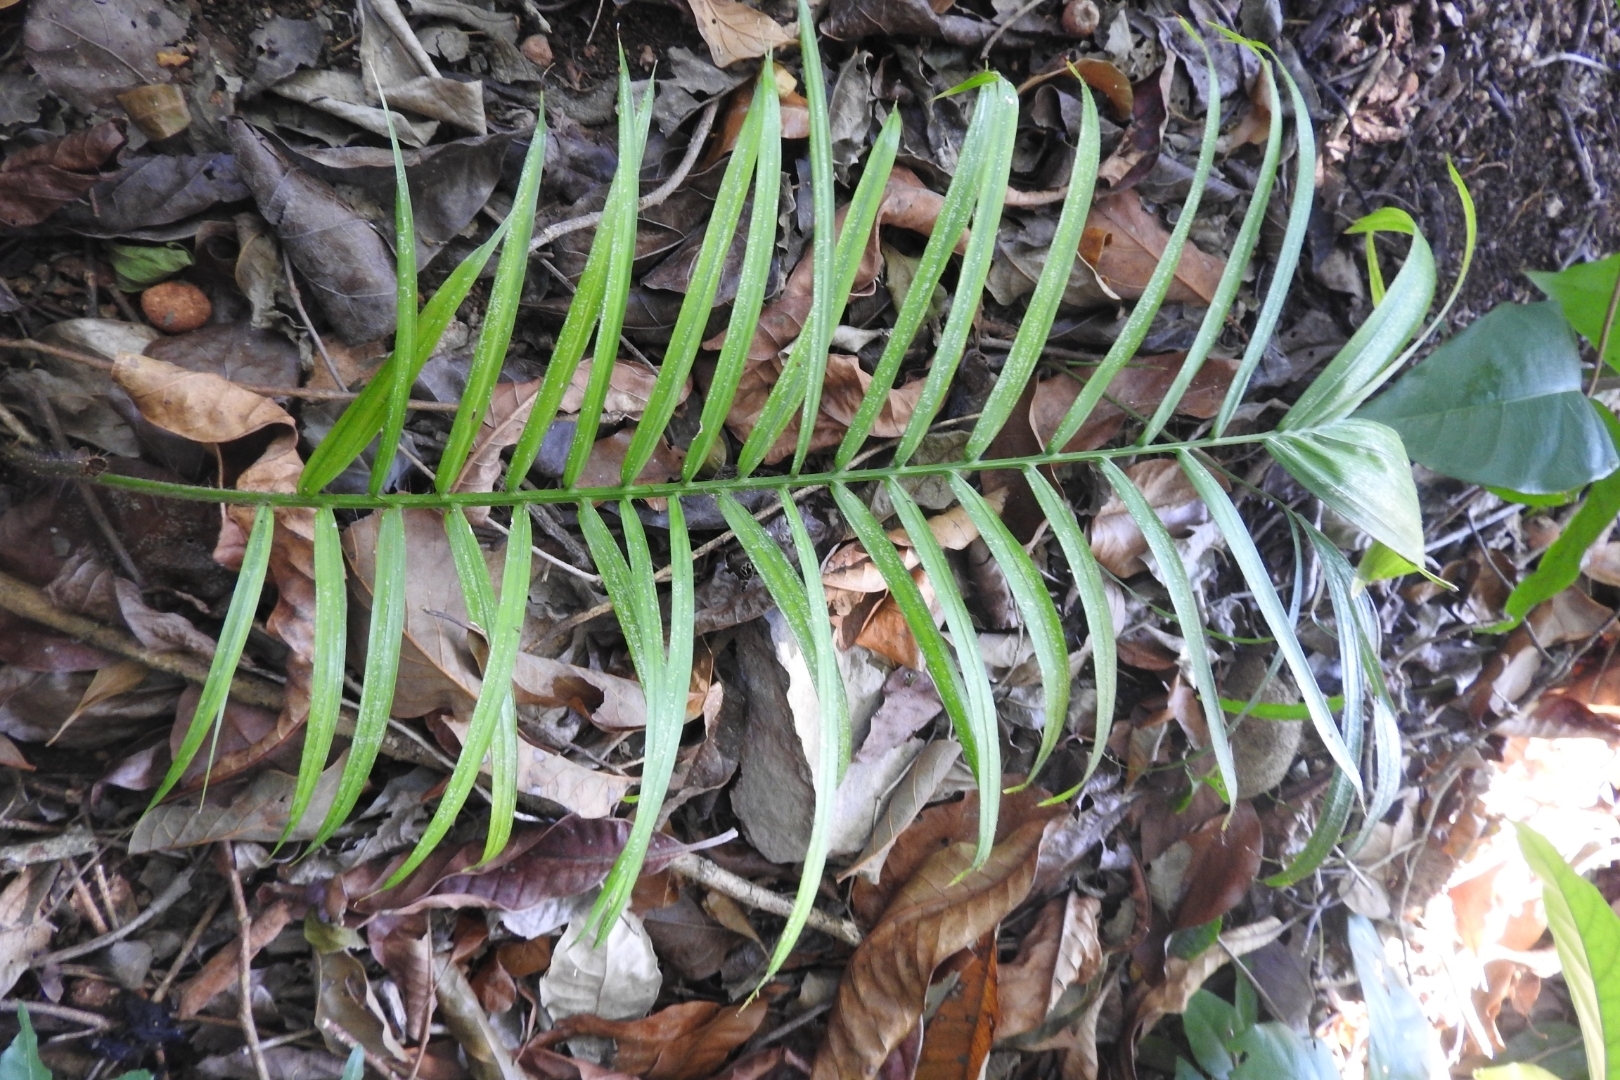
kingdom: Plantae
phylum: Tracheophyta
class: Cycadopsida
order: Cycadales
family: Zamiaceae
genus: Zamia
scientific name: Zamia prasina
